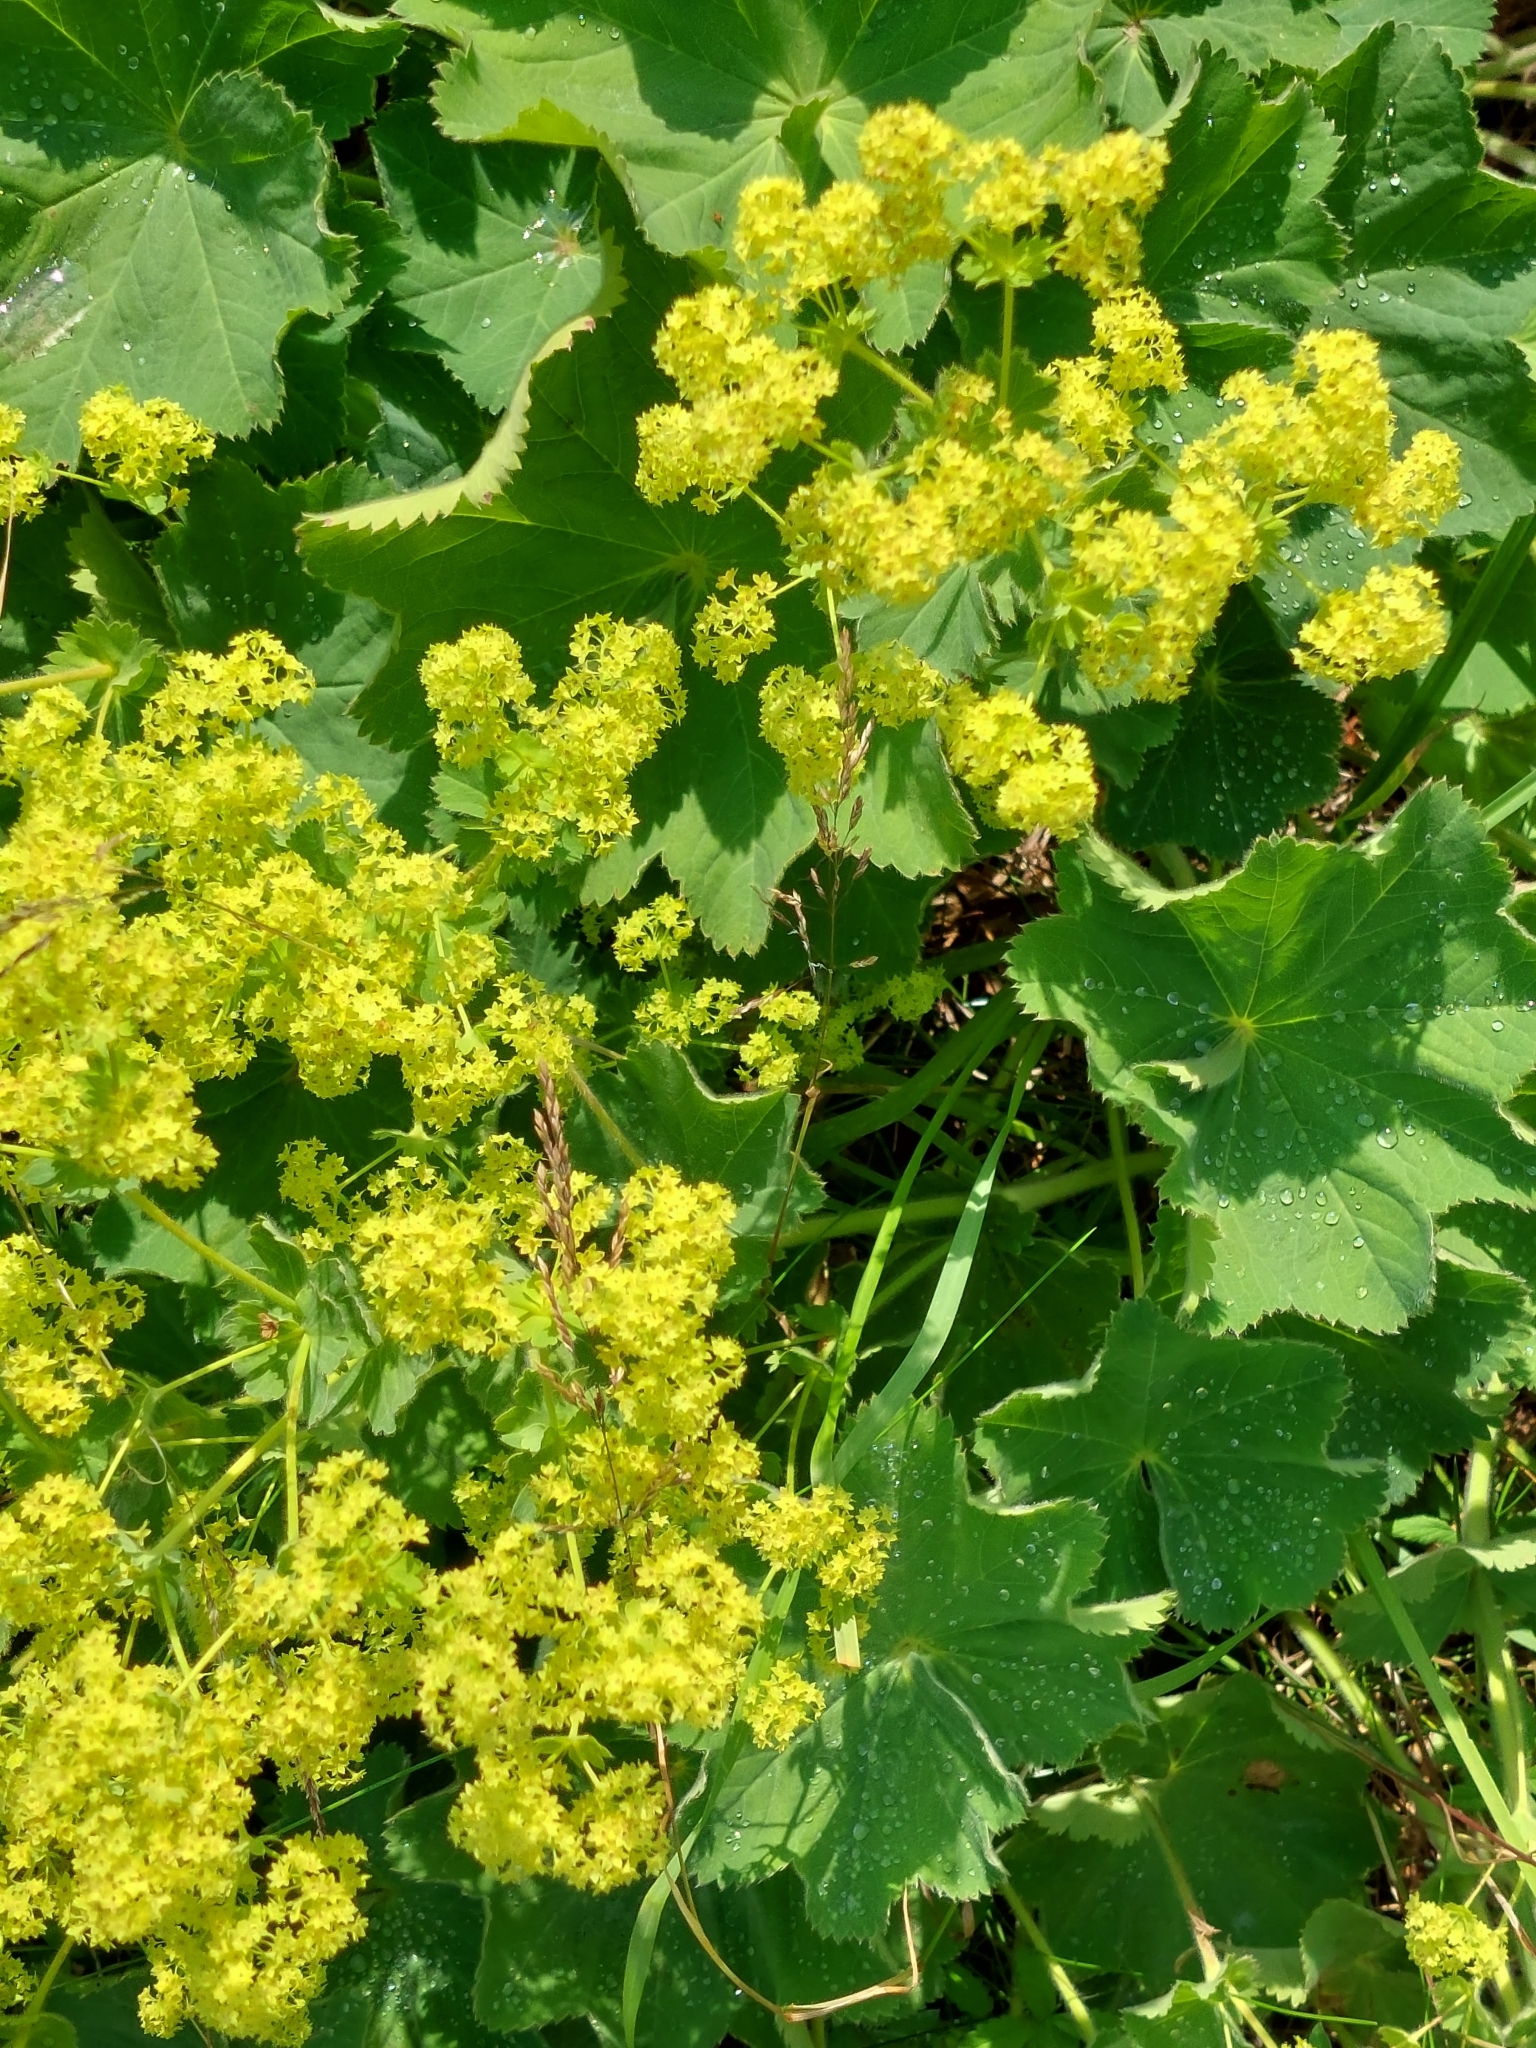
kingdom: Plantae
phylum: Tracheophyta
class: Magnoliopsida
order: Rosales
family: Rosaceae
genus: Alchemilla
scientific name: Alchemilla mollis
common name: Lady's-mantle
